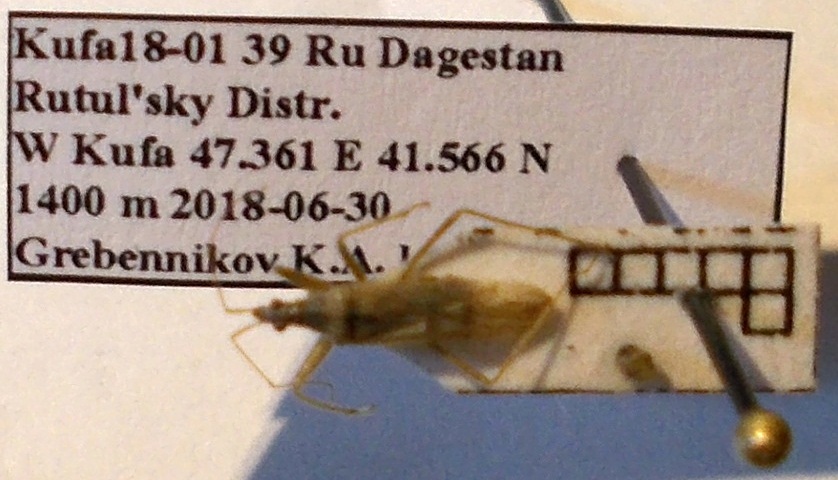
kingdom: Animalia
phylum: Arthropoda
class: Insecta
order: Hemiptera
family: Nabidae
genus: Nabis
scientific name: Nabis pseudoferus
